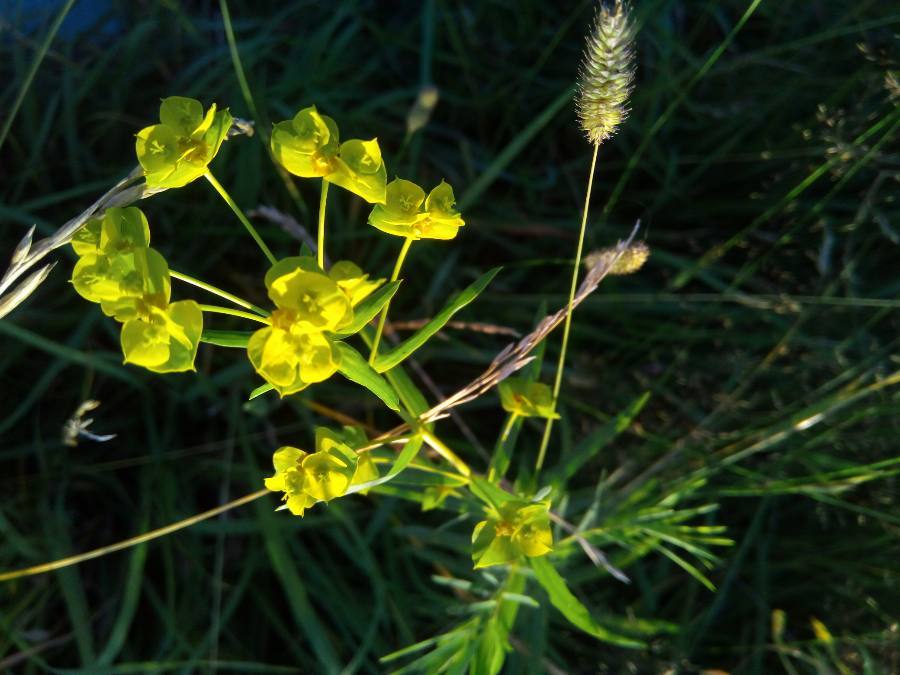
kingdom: Plantae
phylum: Tracheophyta
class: Magnoliopsida
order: Malpighiales
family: Euphorbiaceae
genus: Euphorbia
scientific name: Euphorbia virgata
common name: Leafy spurge
